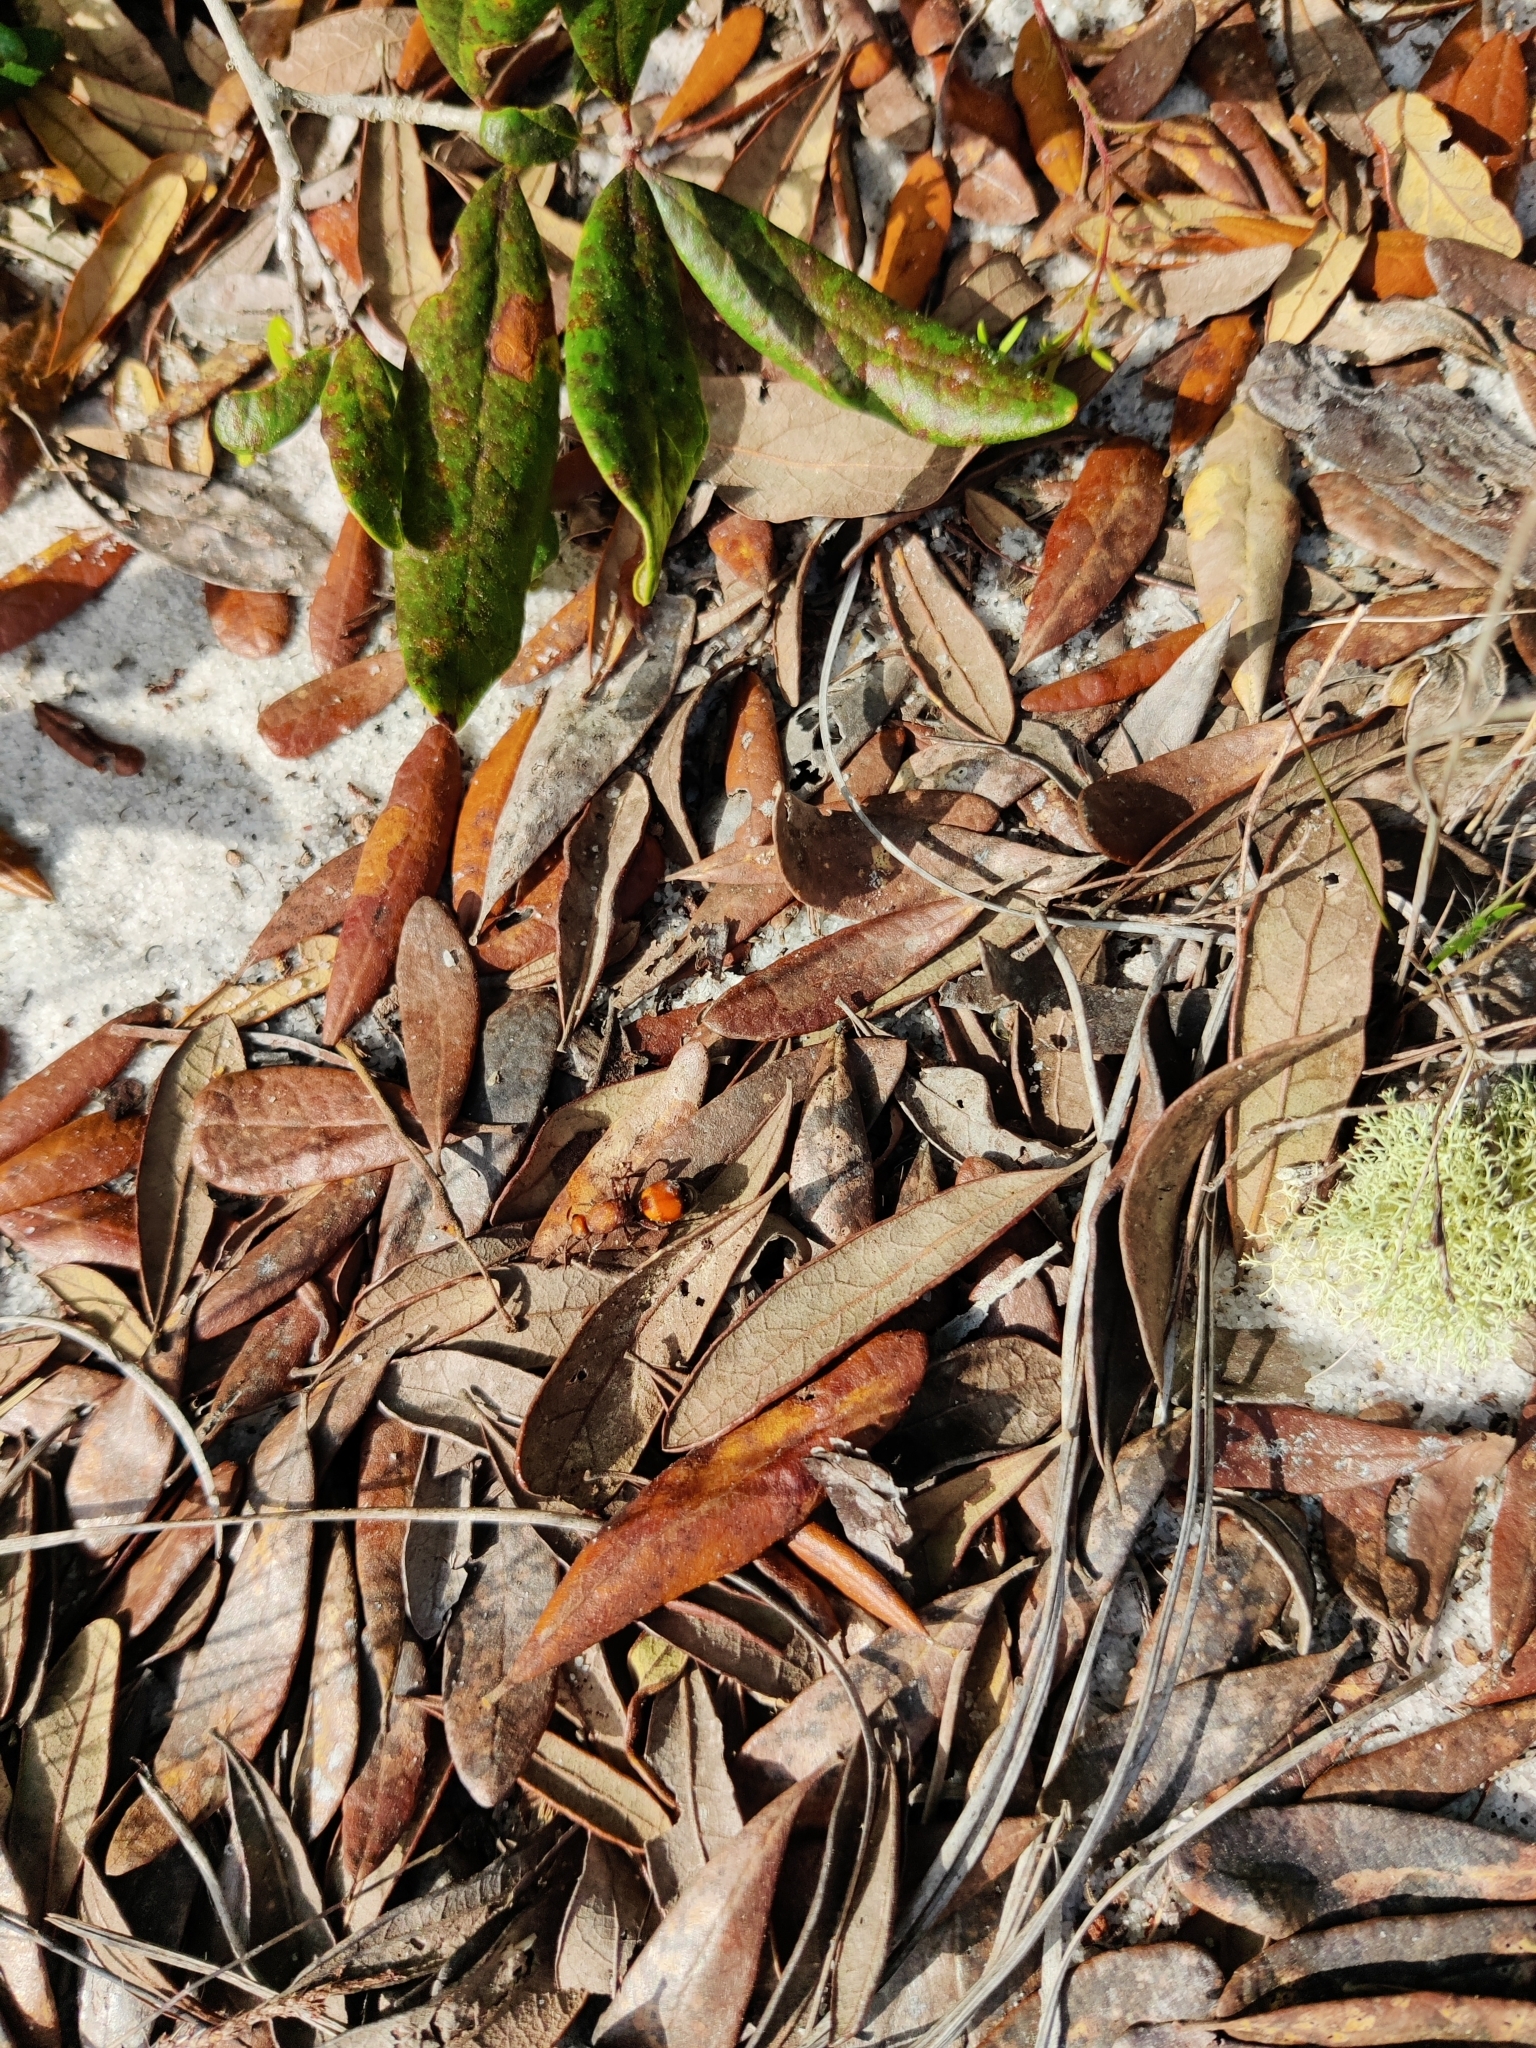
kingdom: Animalia
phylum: Arthropoda
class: Insecta
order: Hymenoptera
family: Mutillidae
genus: Dasymutilla
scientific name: Dasymutilla
